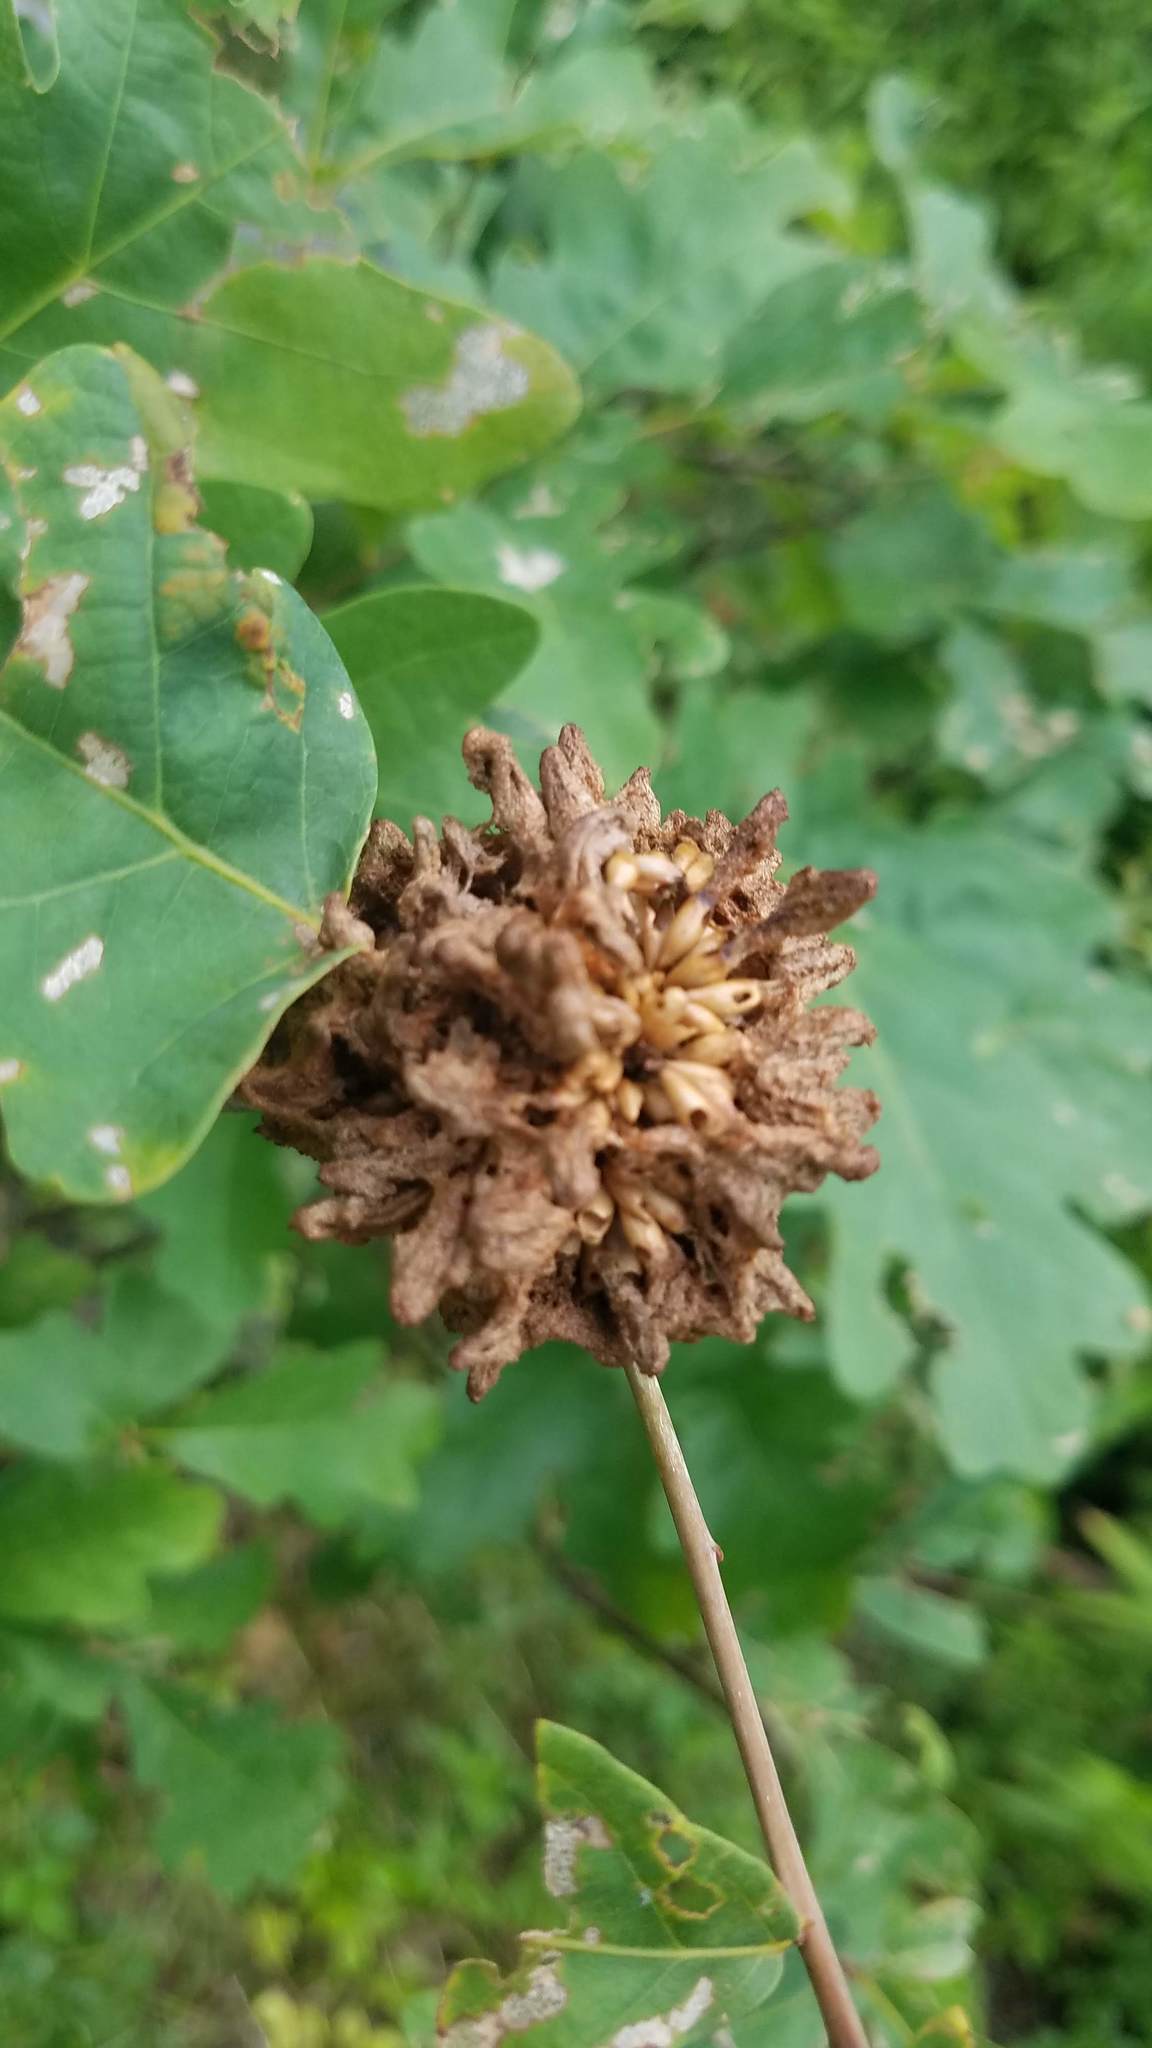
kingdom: Animalia
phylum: Arthropoda
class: Insecta
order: Hymenoptera
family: Cynipidae
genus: Callirhytis
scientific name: Callirhytis
